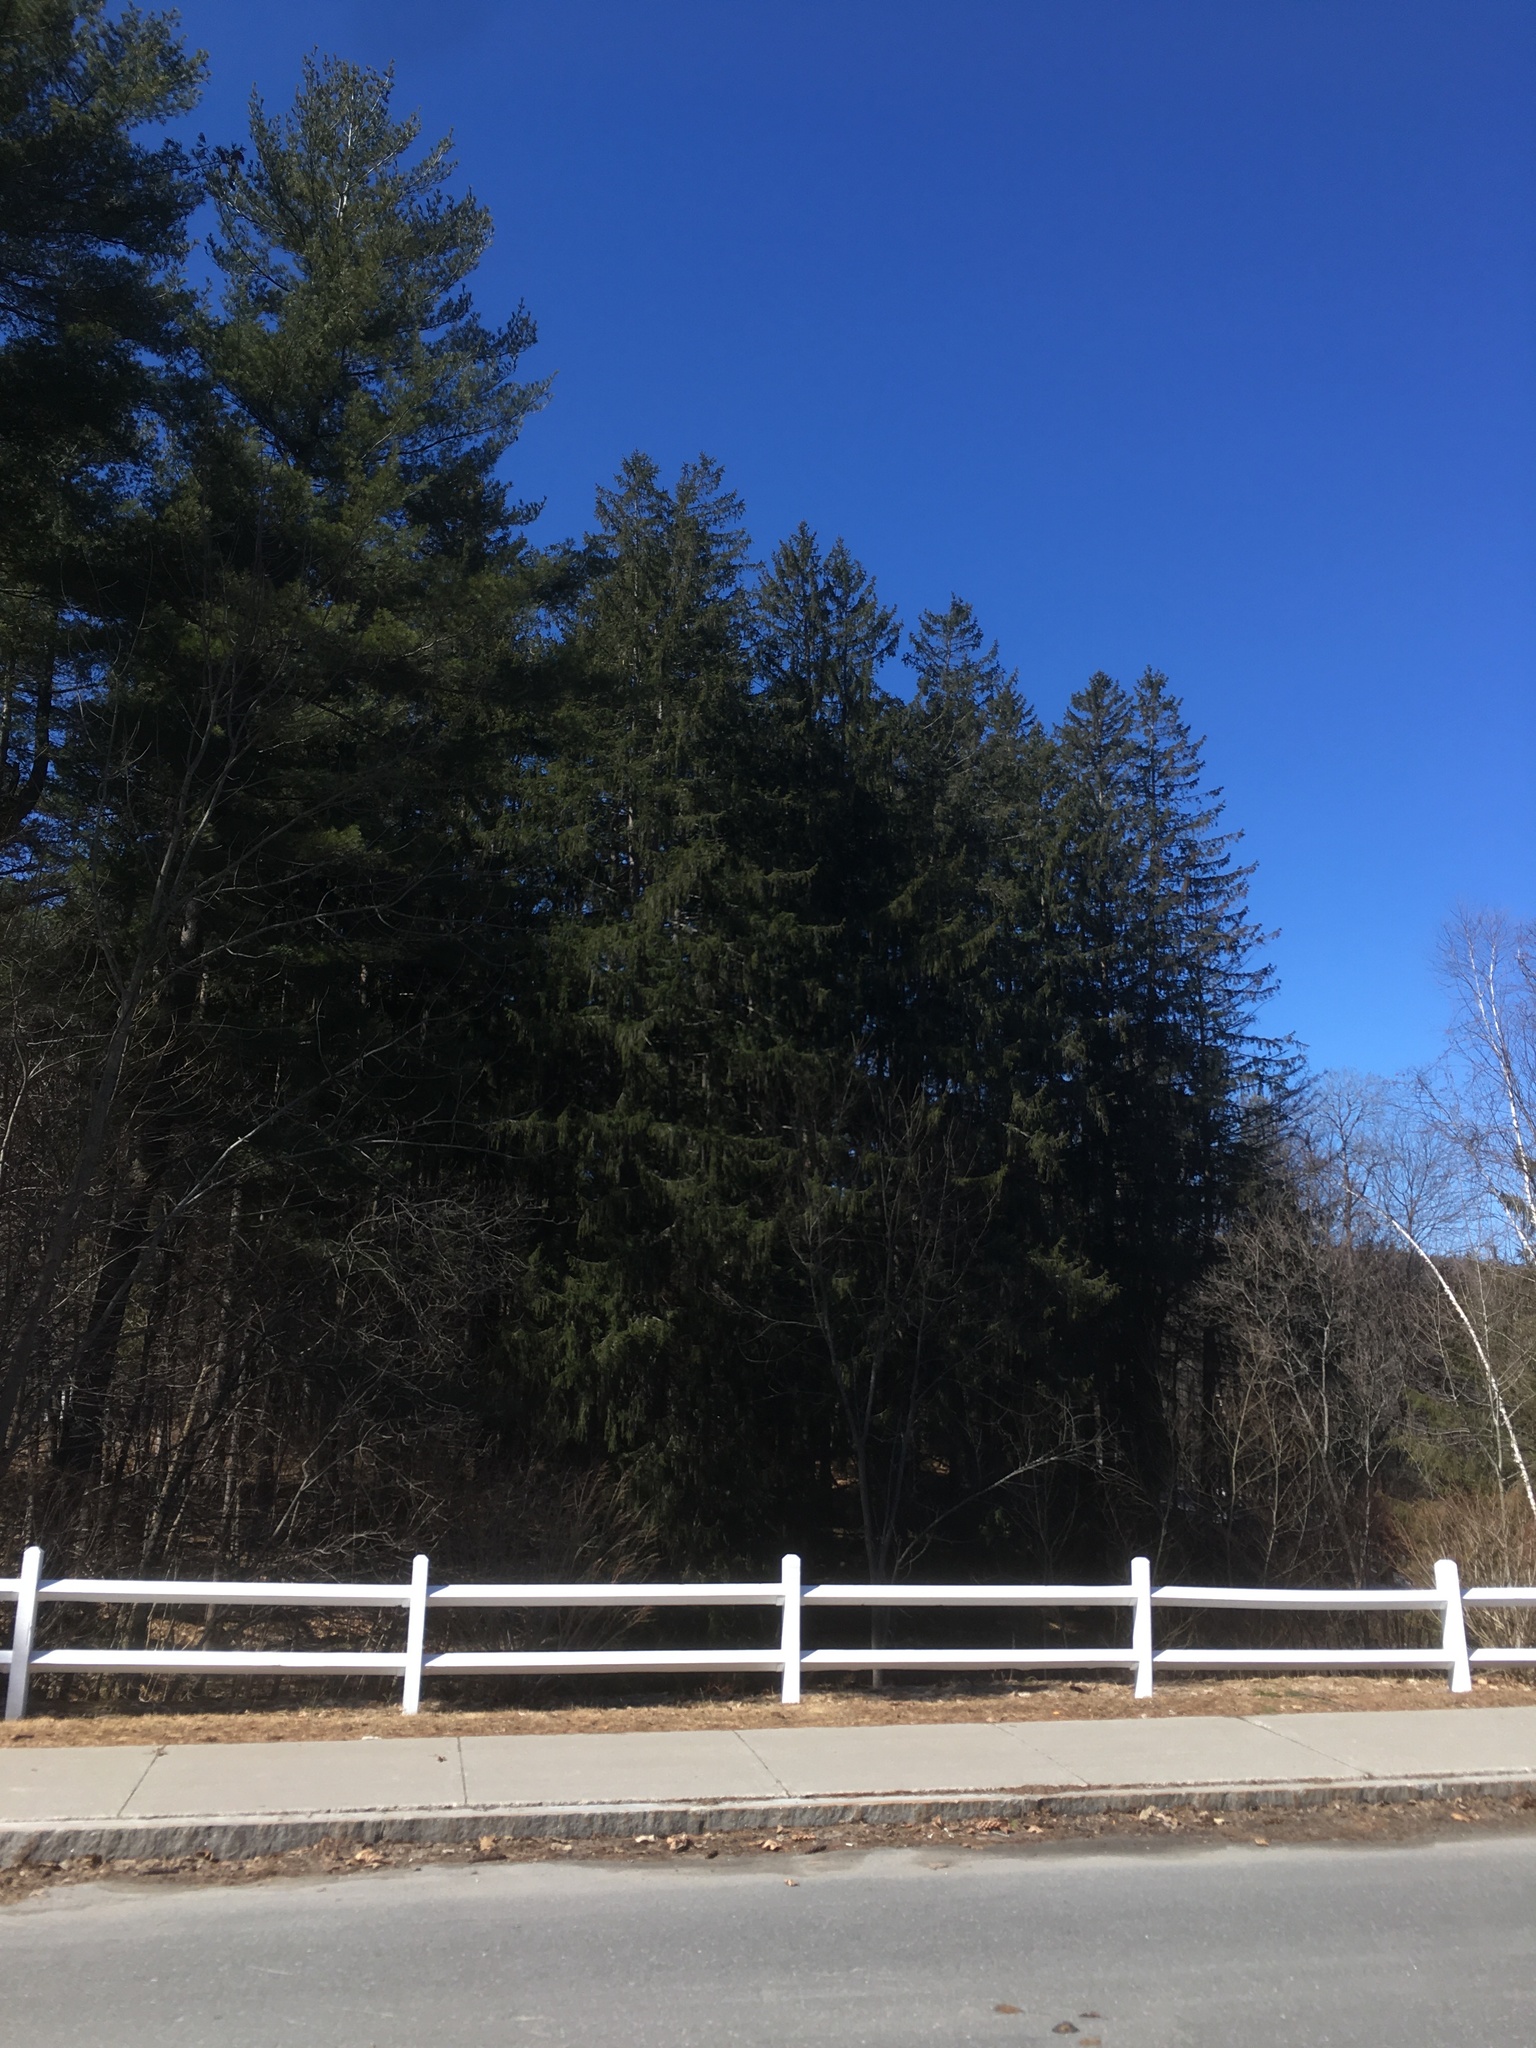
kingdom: Plantae
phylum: Tracheophyta
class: Pinopsida
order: Pinales
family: Pinaceae
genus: Picea
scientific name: Picea abies
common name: Norway spruce
